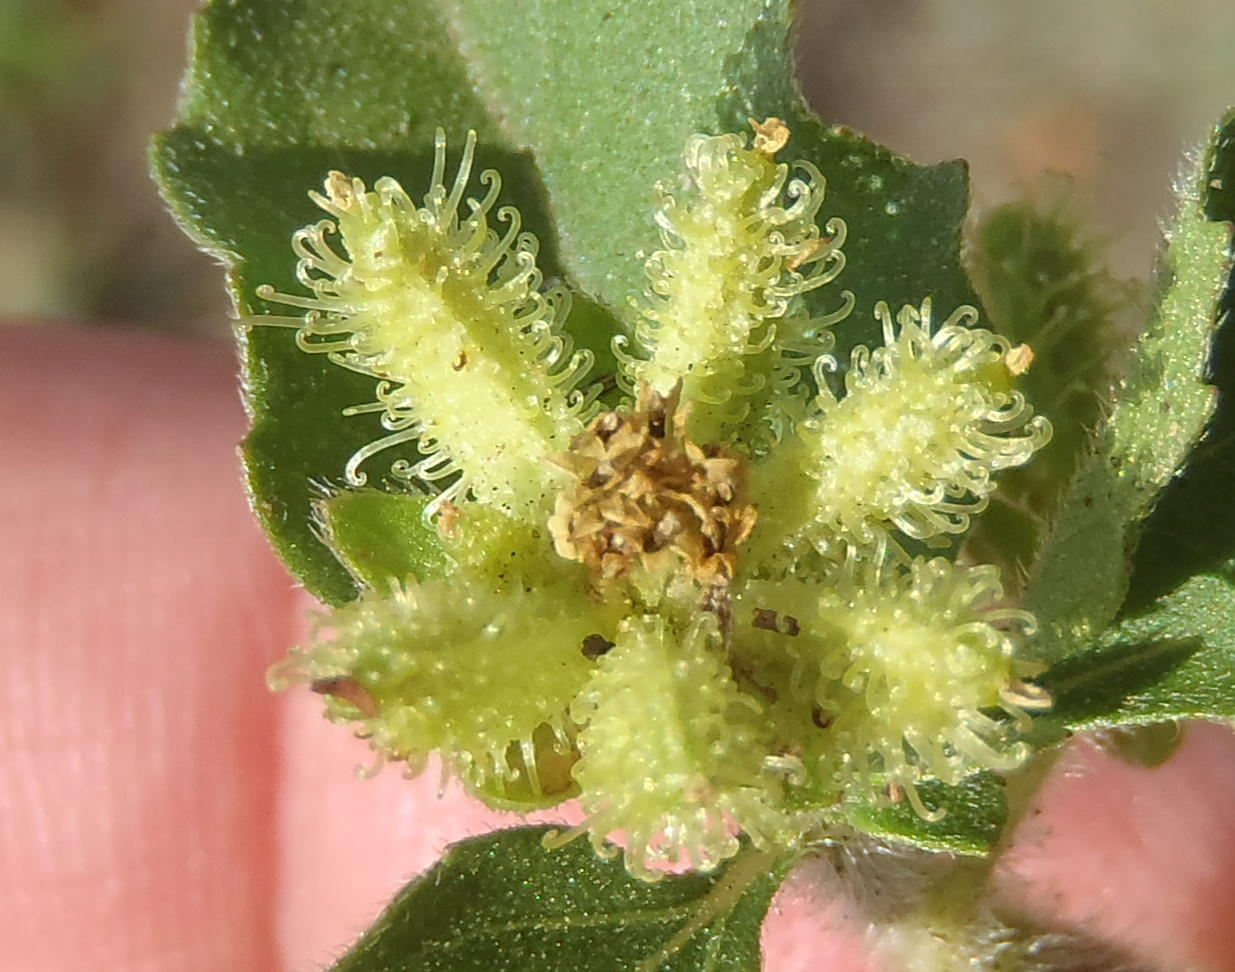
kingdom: Plantae
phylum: Tracheophyta
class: Magnoliopsida
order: Asterales
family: Asteraceae
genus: Acanthospermum
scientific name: Acanthospermum australe
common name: Paraguayan starbur
